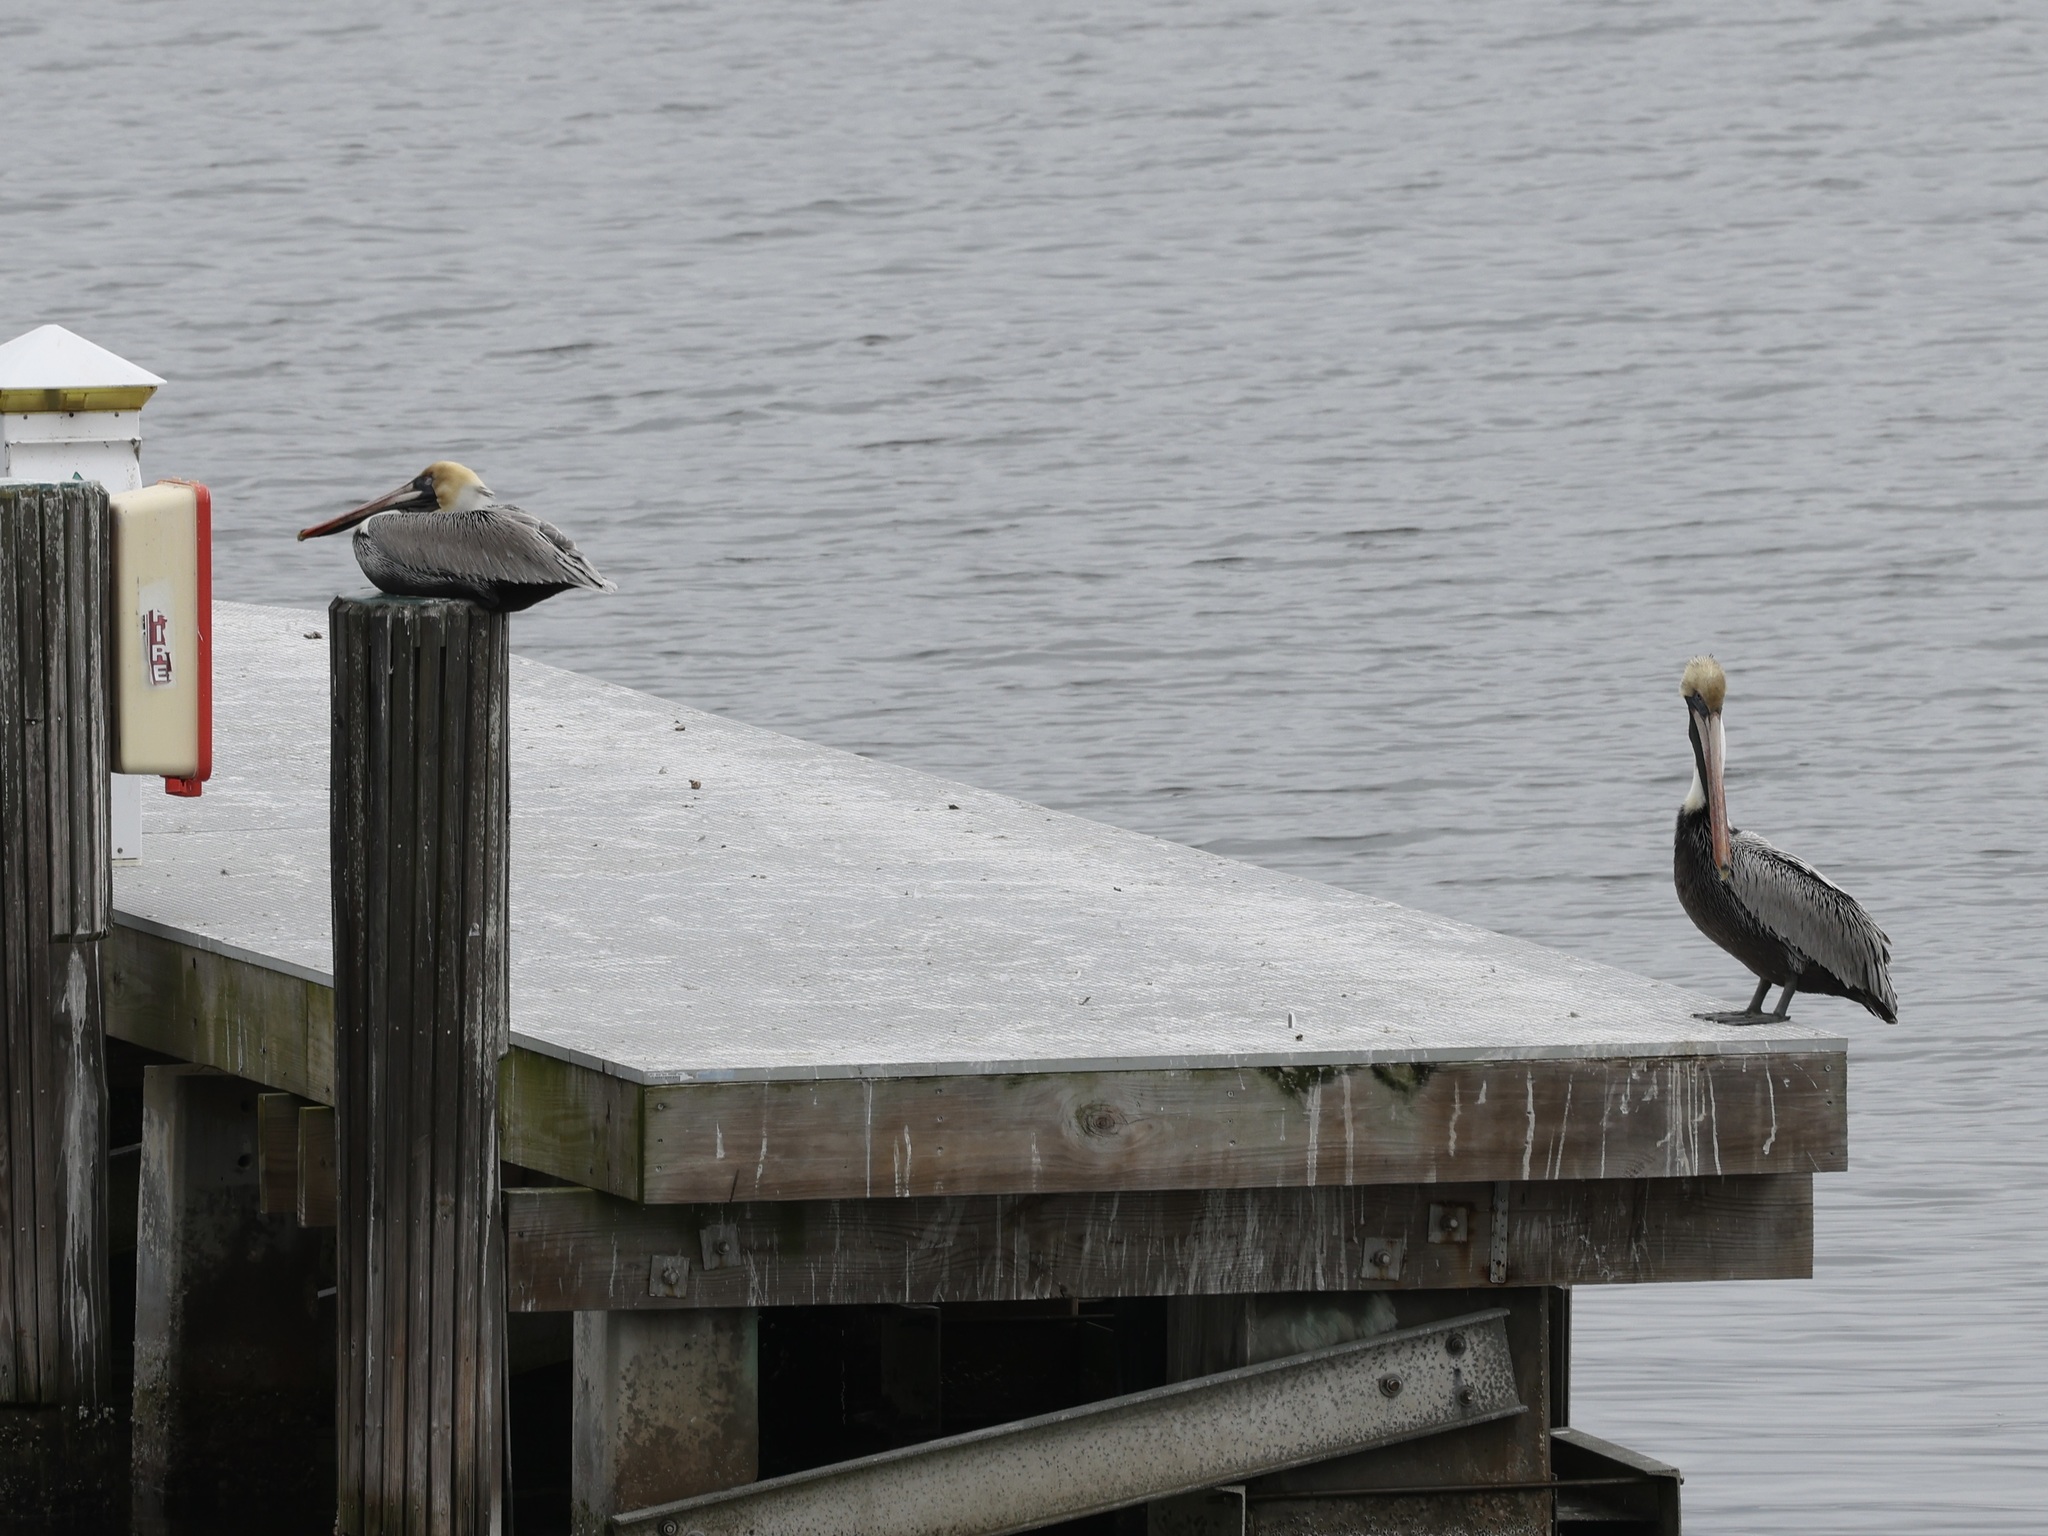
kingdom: Animalia
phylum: Chordata
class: Aves
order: Pelecaniformes
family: Pelecanidae
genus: Pelecanus
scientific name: Pelecanus occidentalis
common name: Brown pelican
